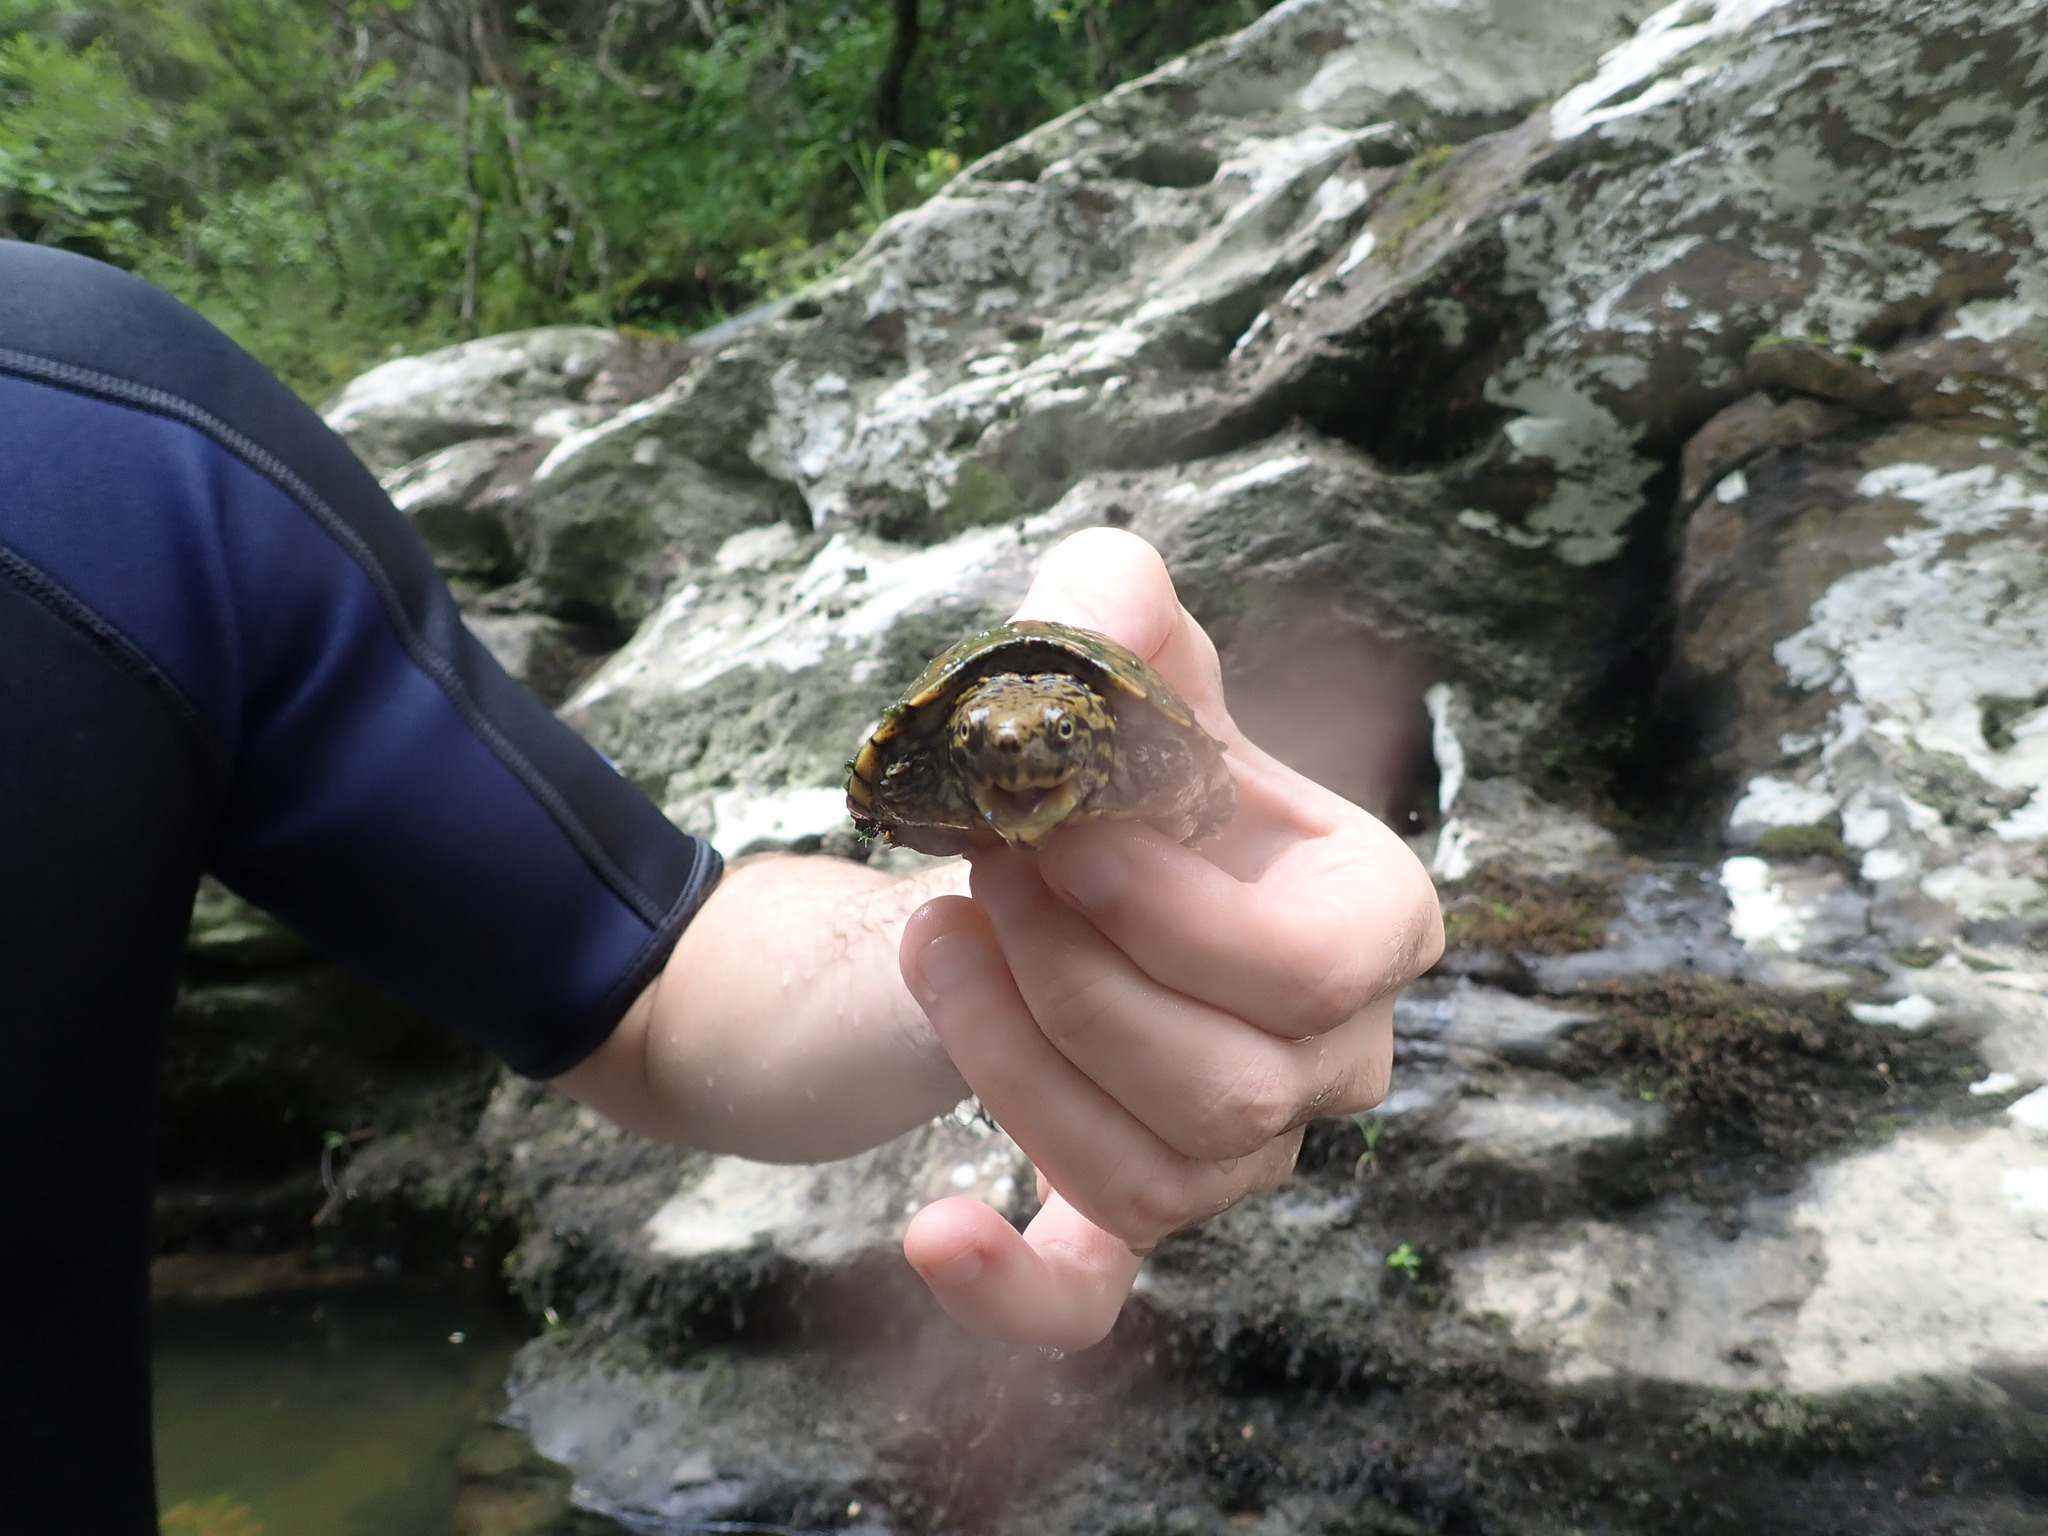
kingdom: Animalia
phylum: Chordata
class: Testudines
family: Kinosternidae
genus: Sternotherus
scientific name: Sternotherus peltifer
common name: Stripeneck musk turtle
